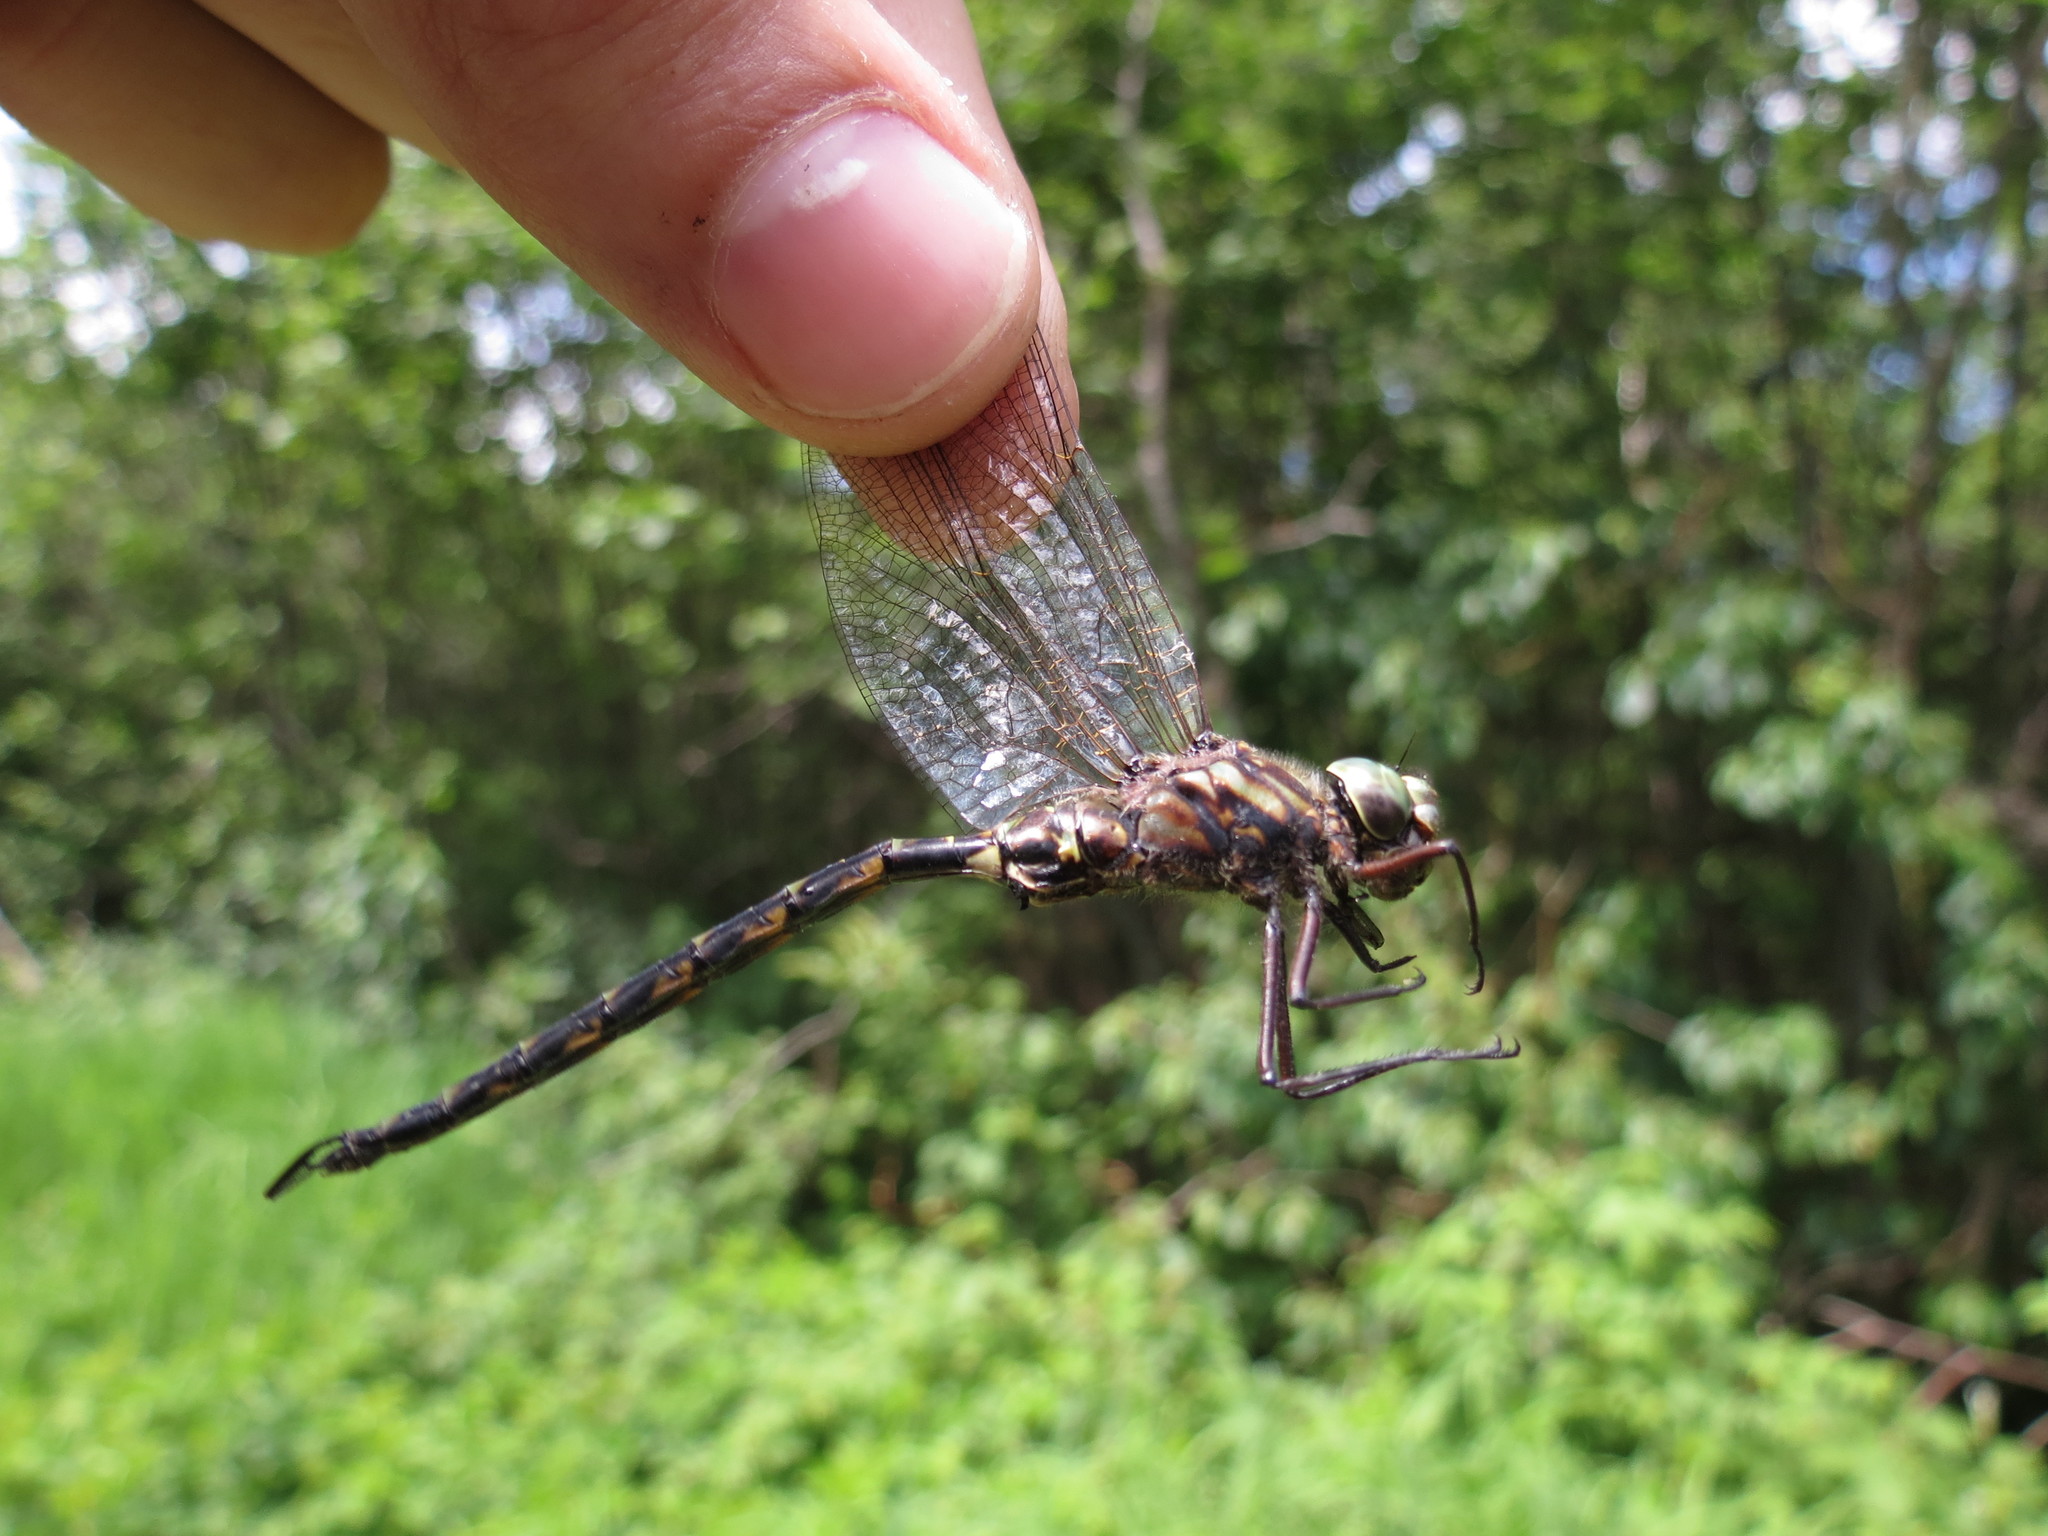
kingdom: Animalia
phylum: Arthropoda
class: Insecta
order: Odonata
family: Aeshnidae
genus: Gomphaeschna
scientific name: Gomphaeschna furcillata
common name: Harlequin darner
